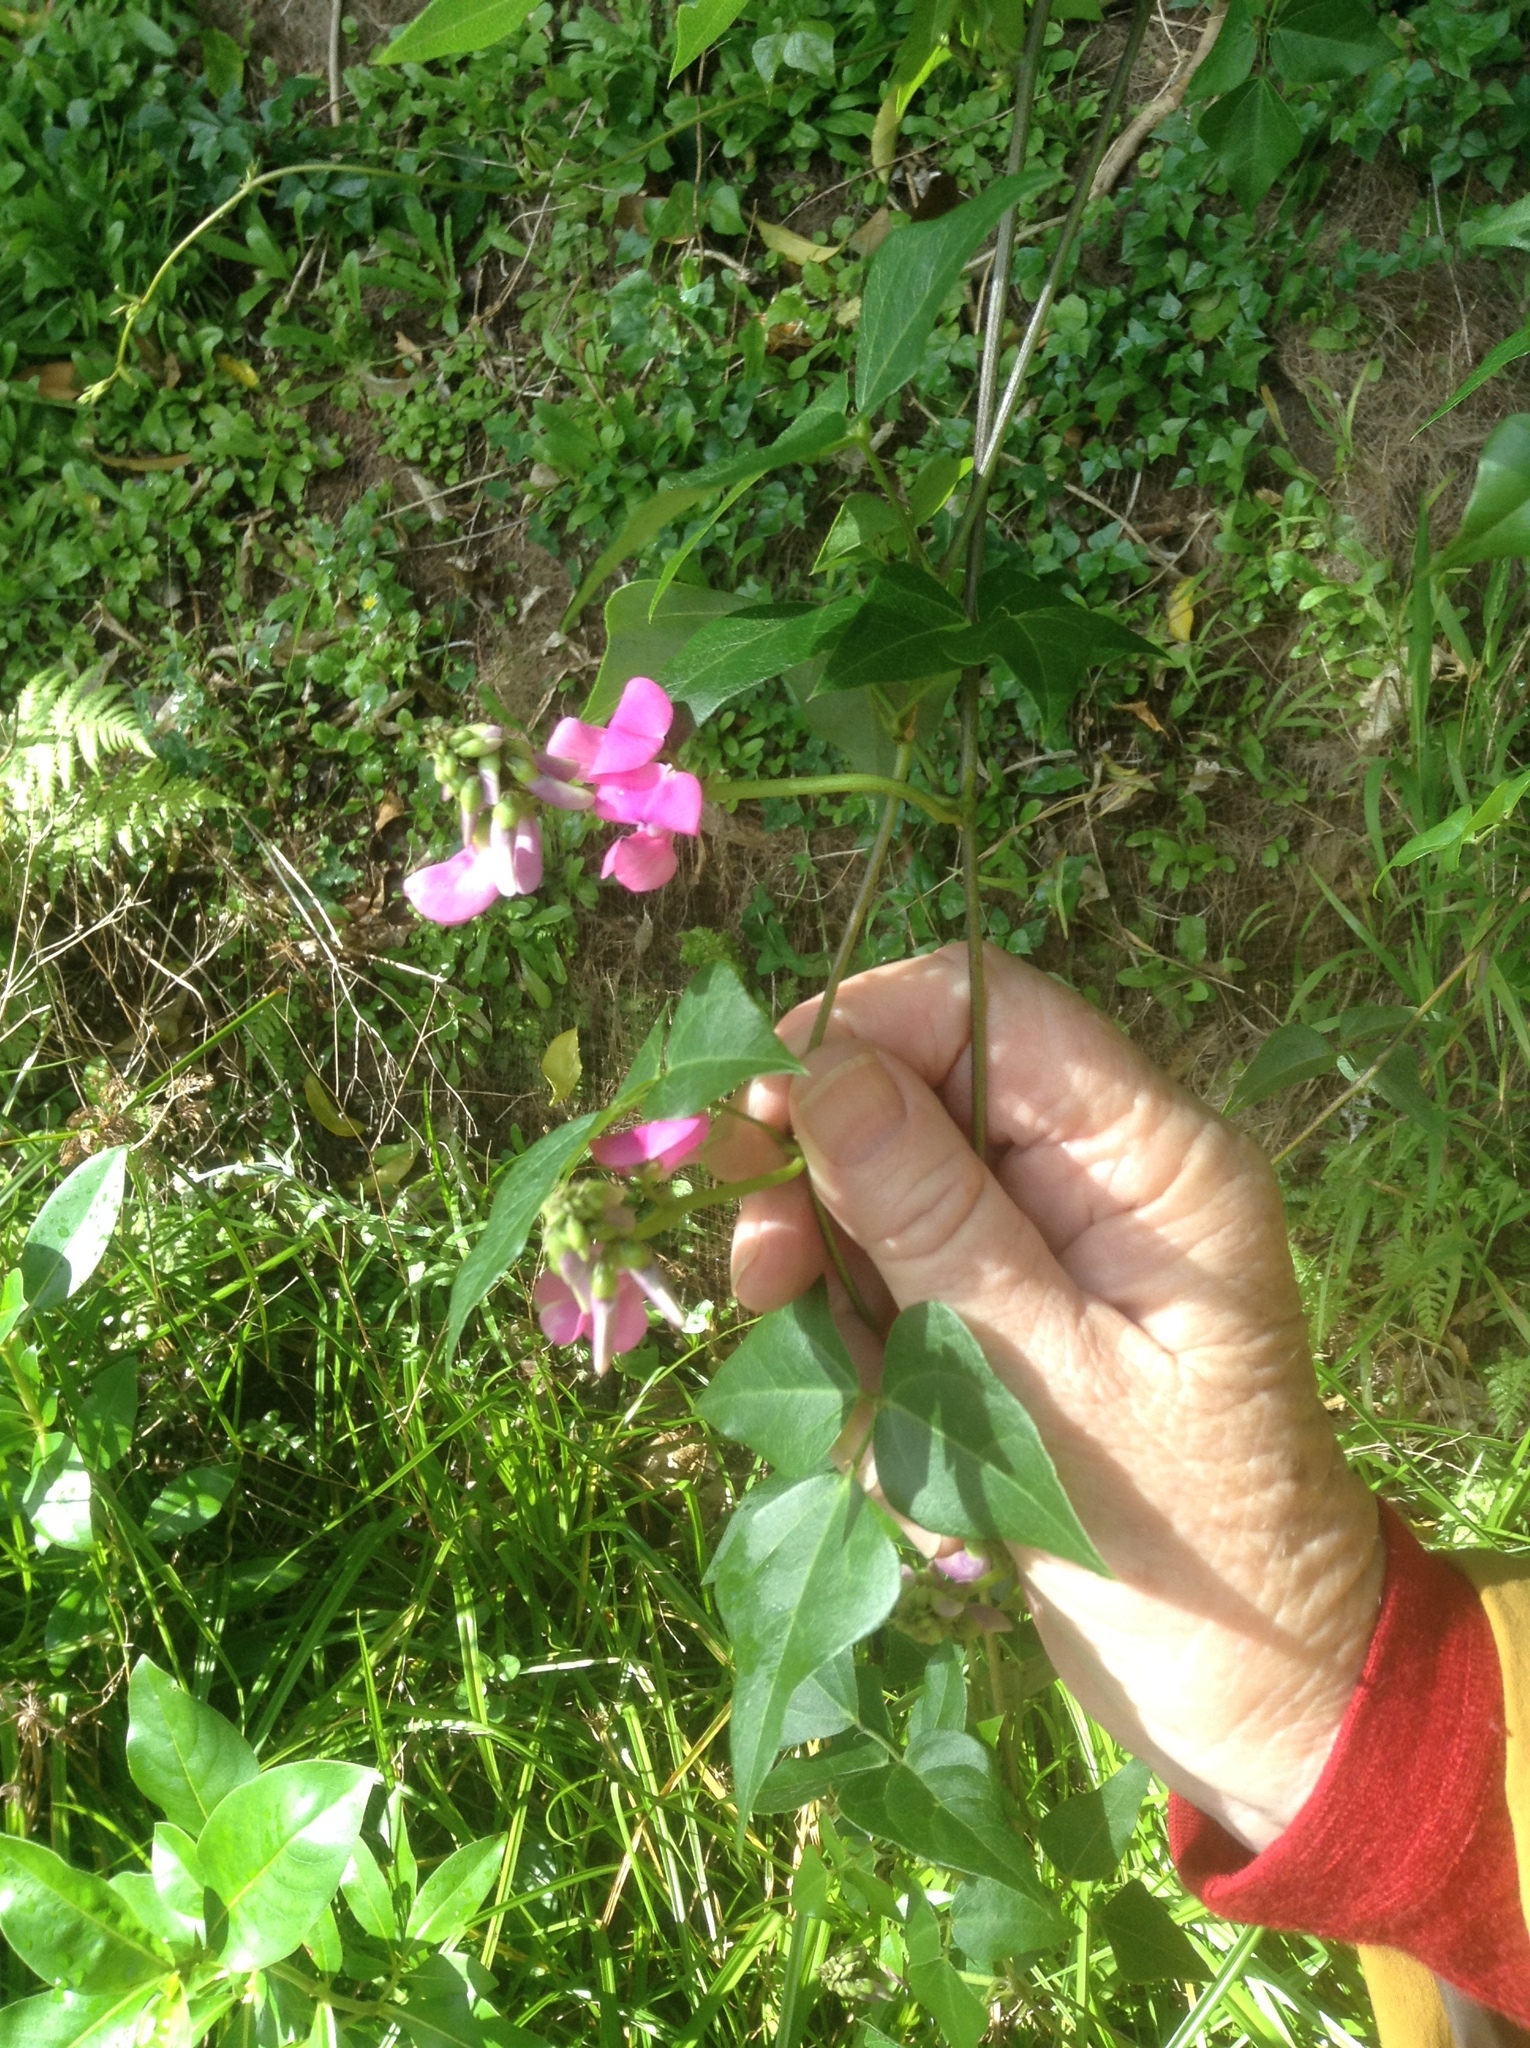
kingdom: Plantae
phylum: Tracheophyta
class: Magnoliopsida
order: Fabales
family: Fabaceae
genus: Dipogon
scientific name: Dipogon lignosus
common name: Okie bean
